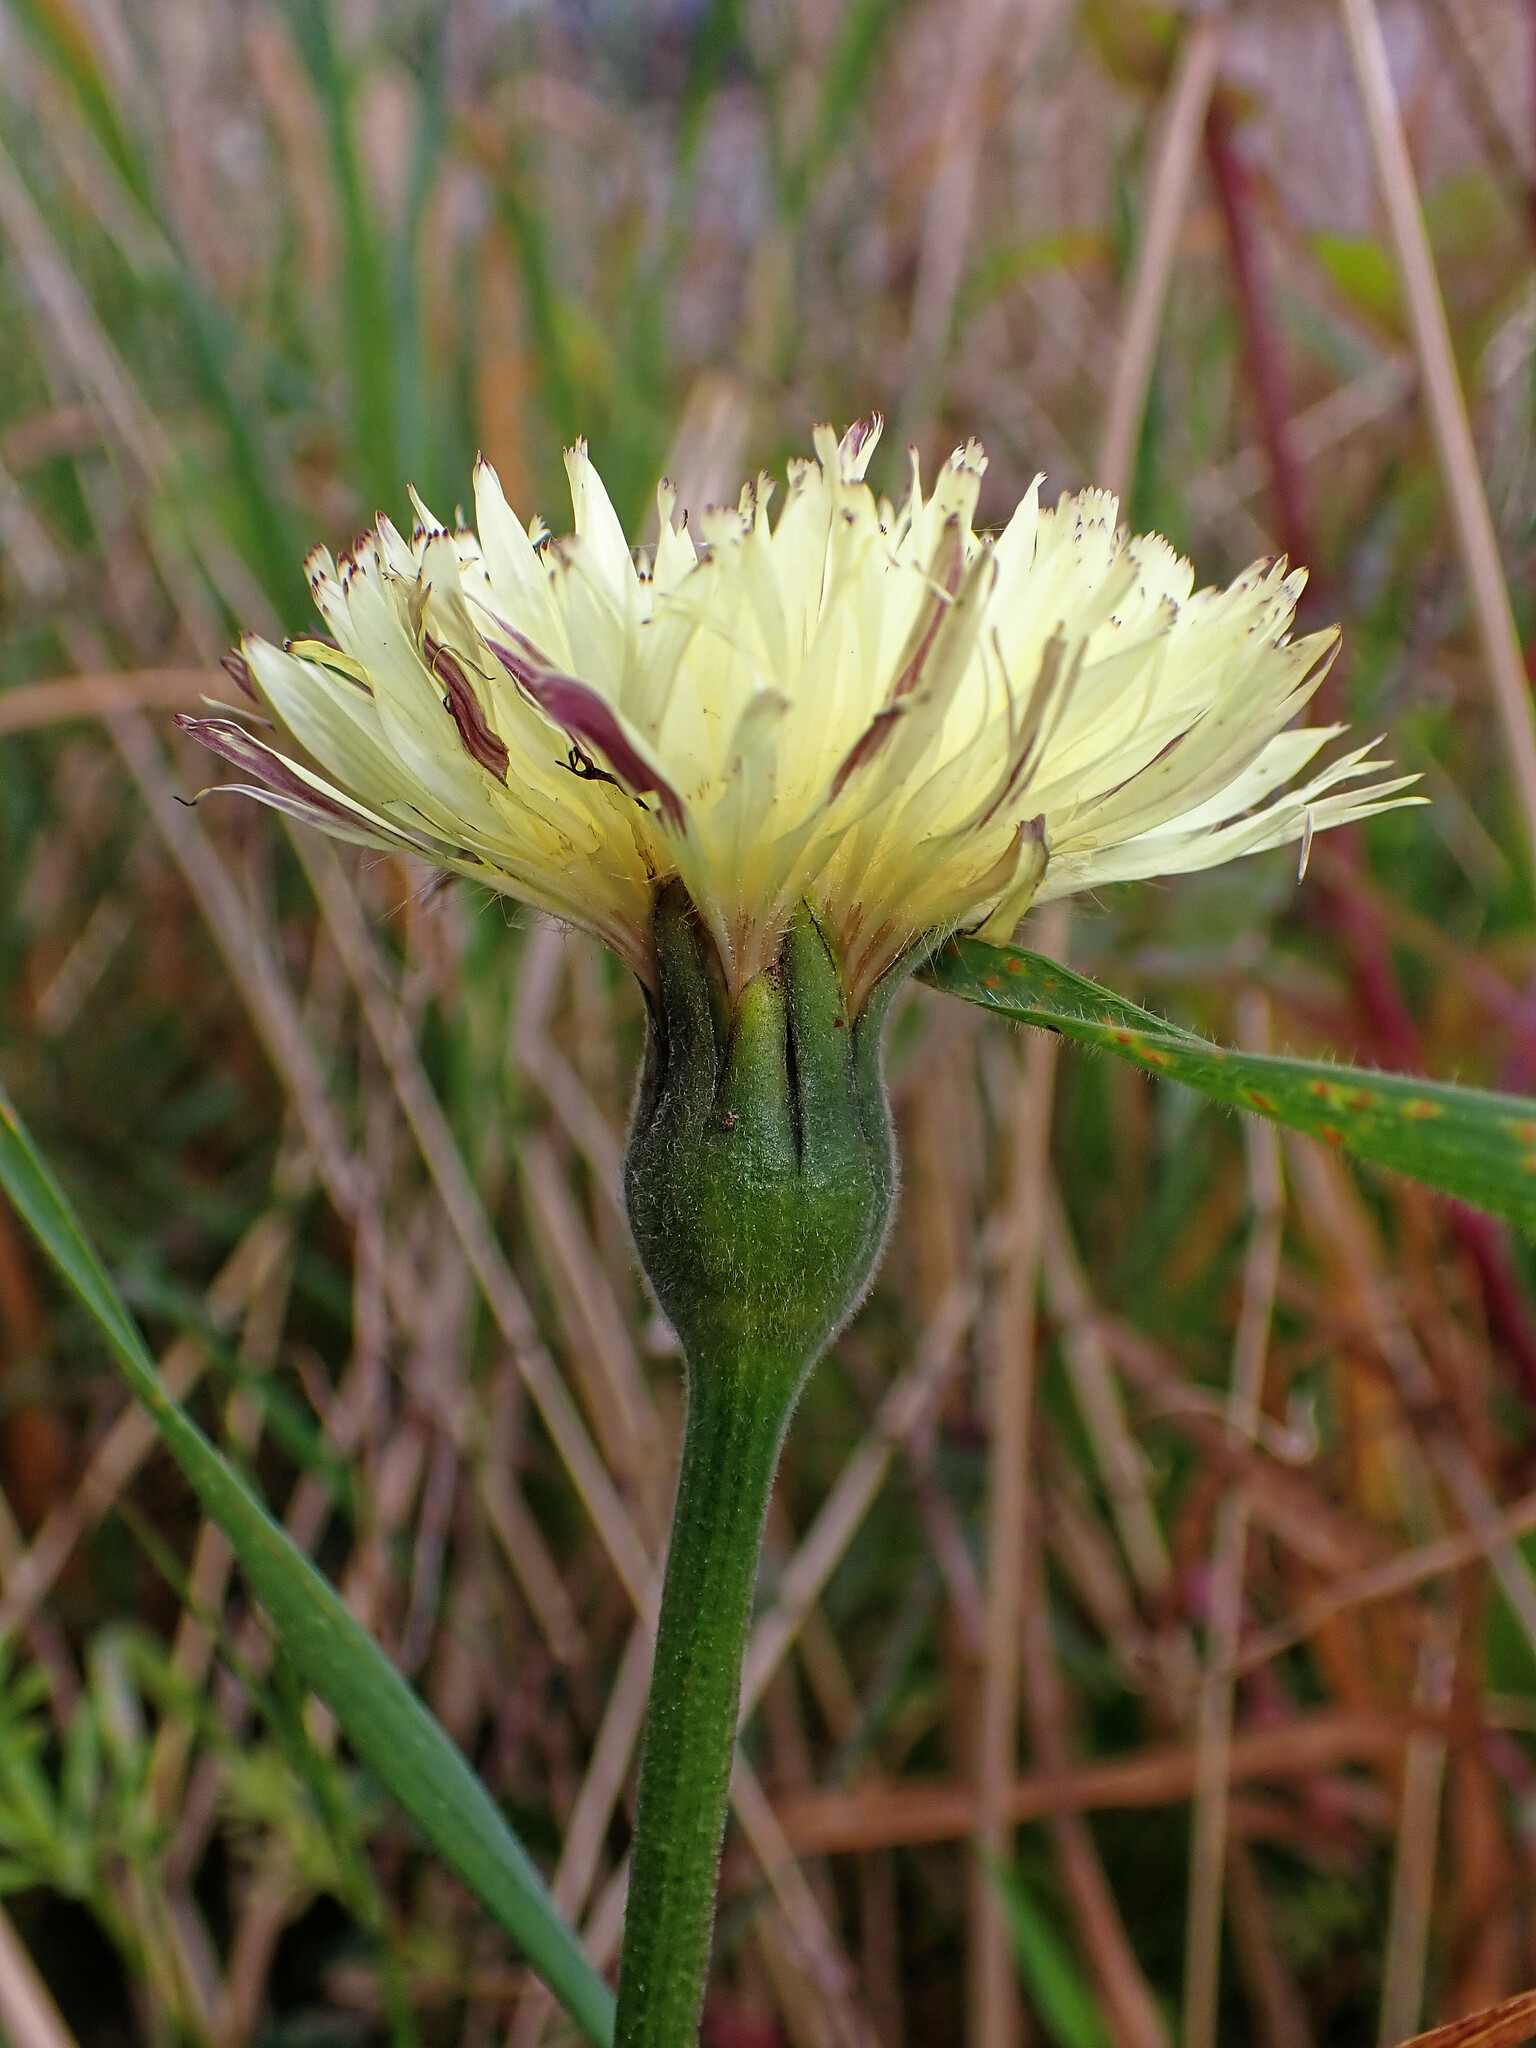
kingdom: Plantae
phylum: Tracheophyta
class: Magnoliopsida
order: Asterales
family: Asteraceae
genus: Urospermum
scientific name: Urospermum dalechampii
